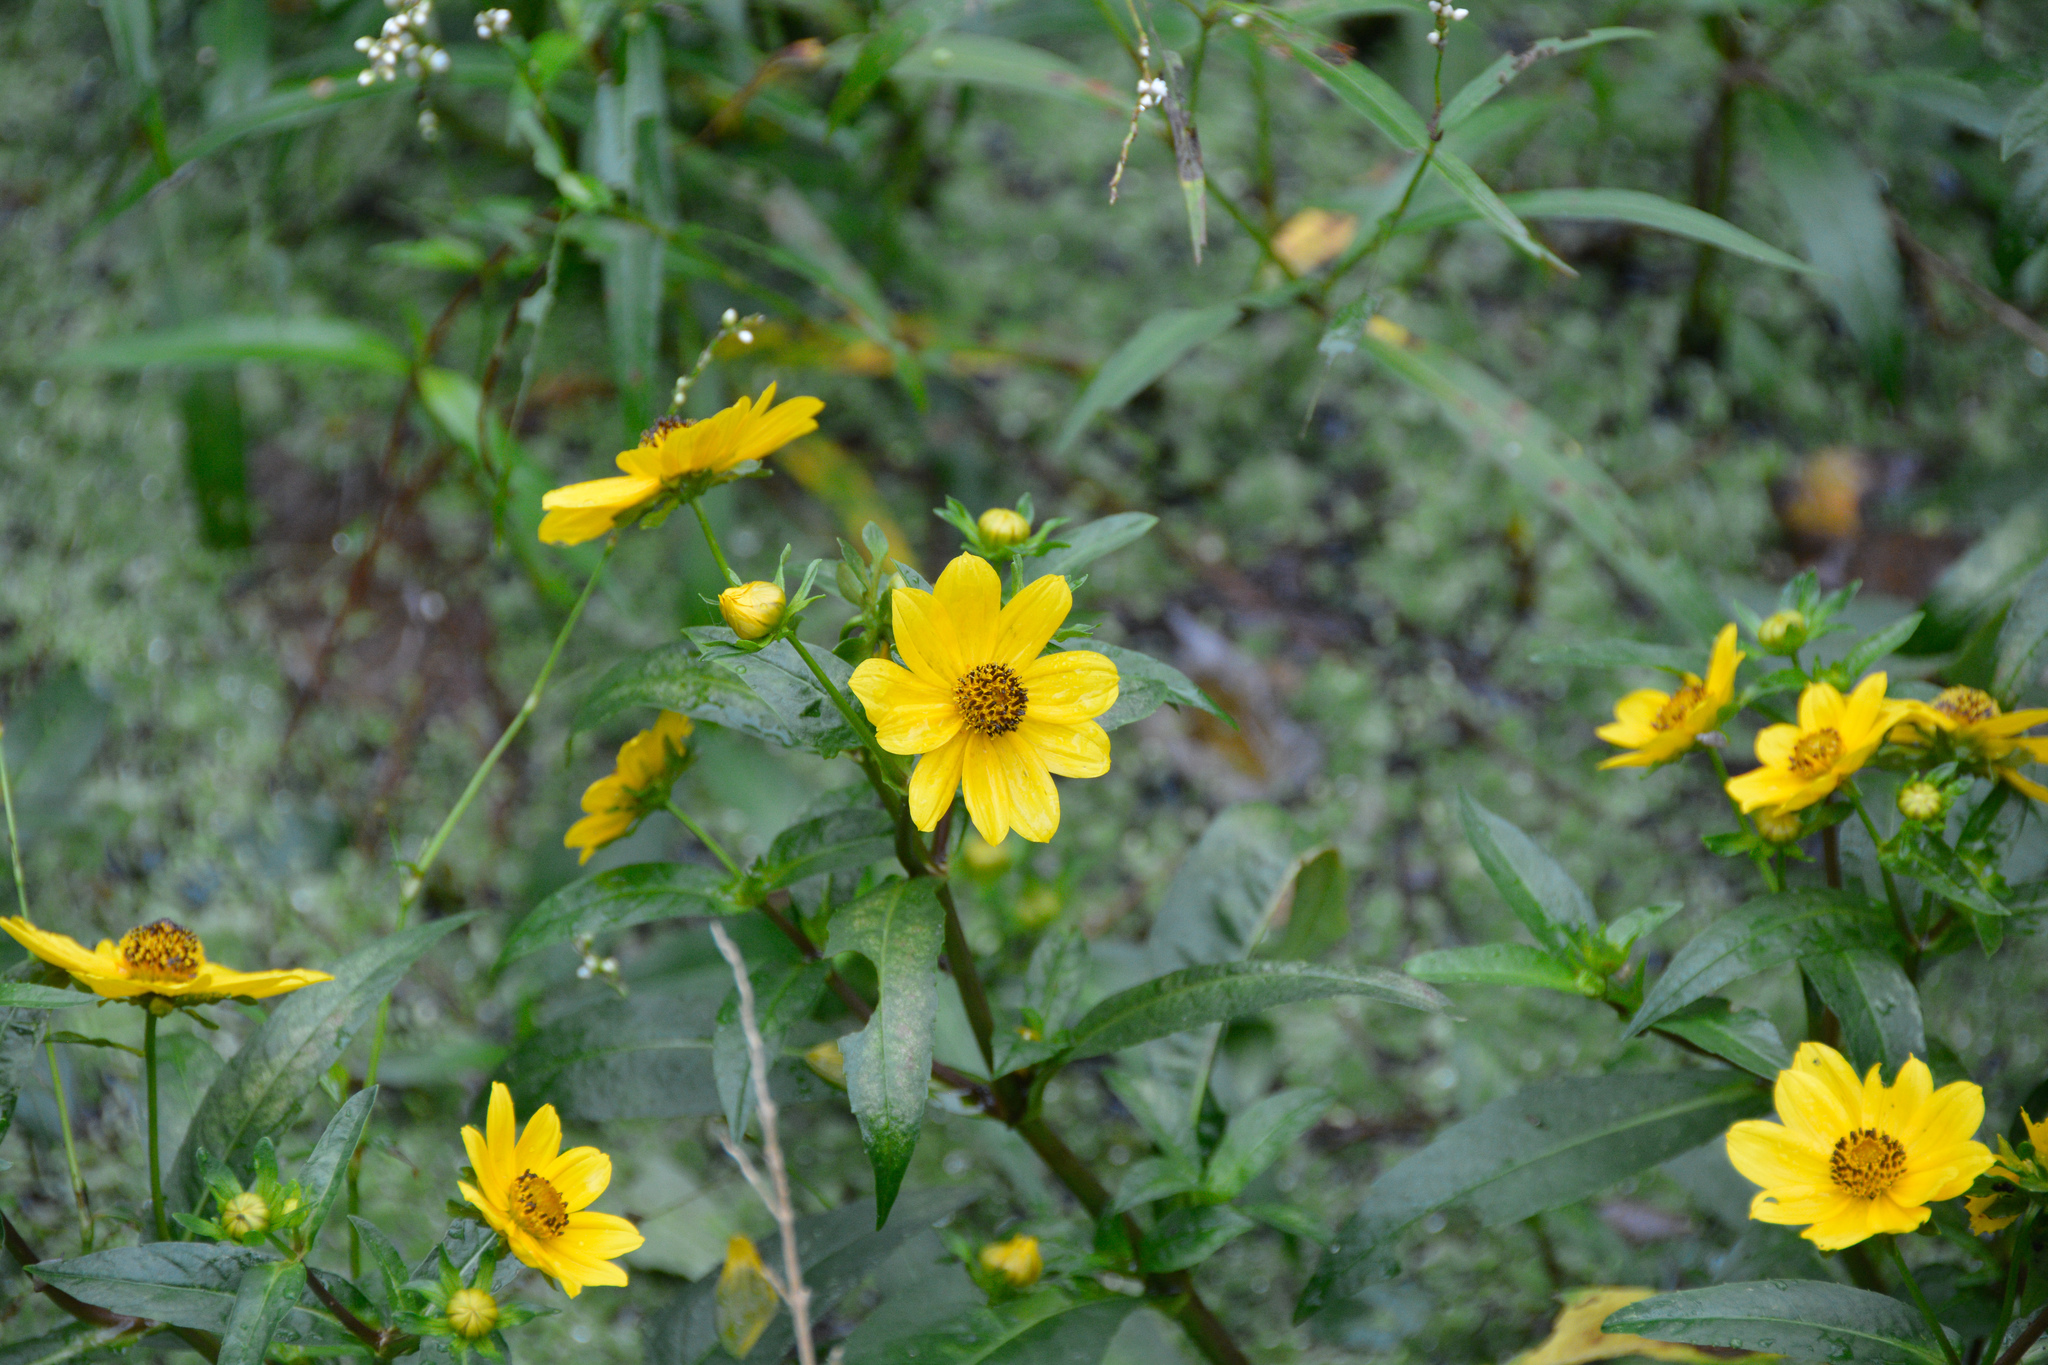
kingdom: Plantae
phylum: Tracheophyta
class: Magnoliopsida
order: Asterales
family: Asteraceae
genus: Bidens
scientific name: Bidens laevis
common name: Larger bur-marigold
